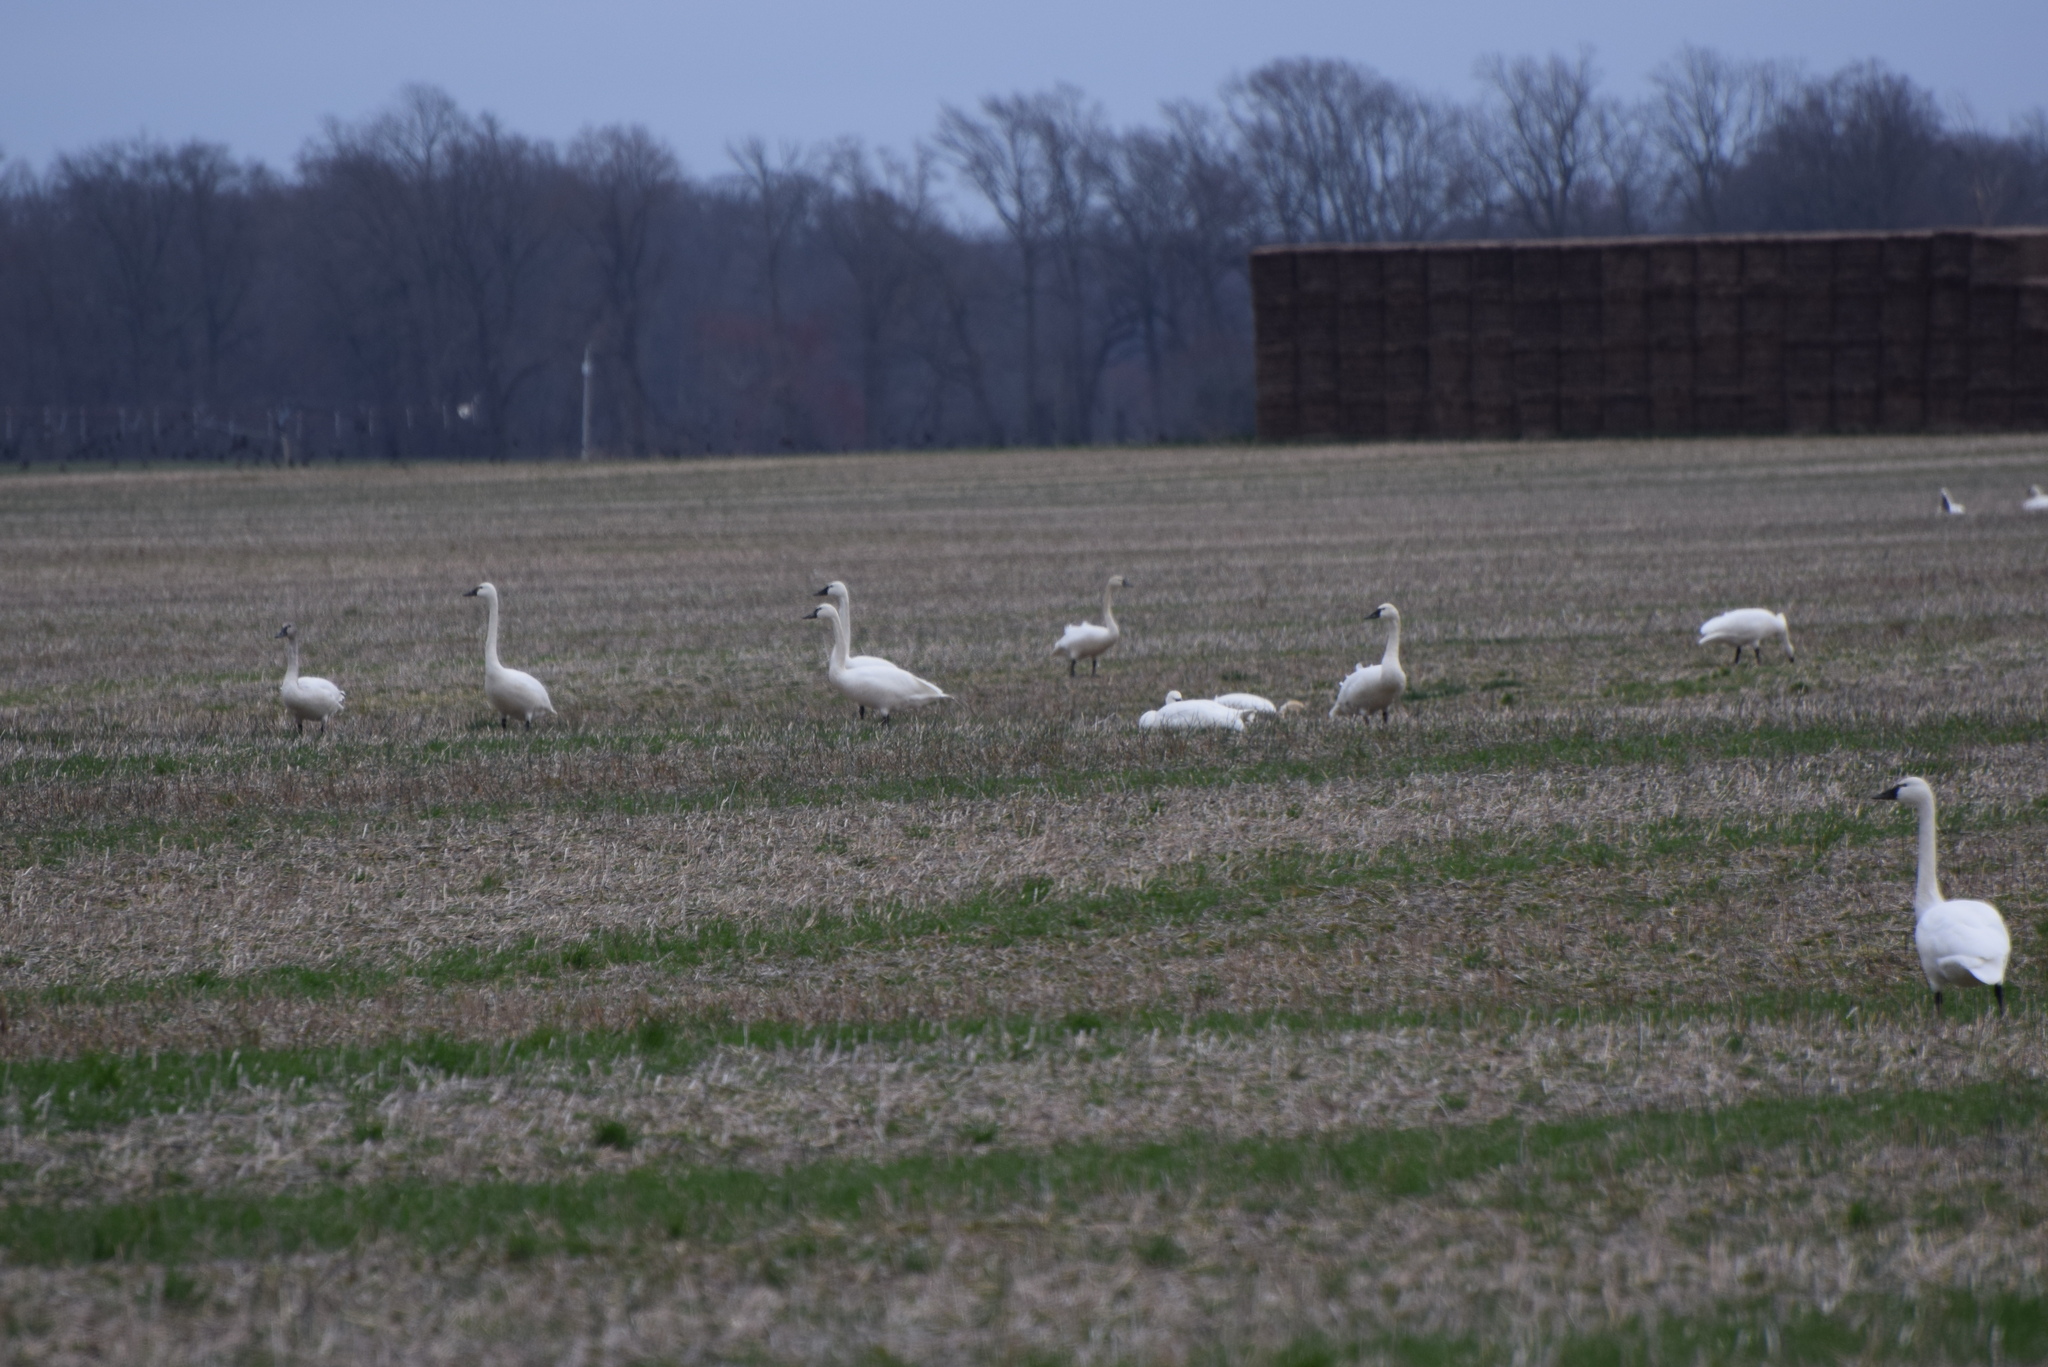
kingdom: Animalia
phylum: Chordata
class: Aves
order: Anseriformes
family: Anatidae
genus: Cygnus
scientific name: Cygnus columbianus
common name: Tundra swan
